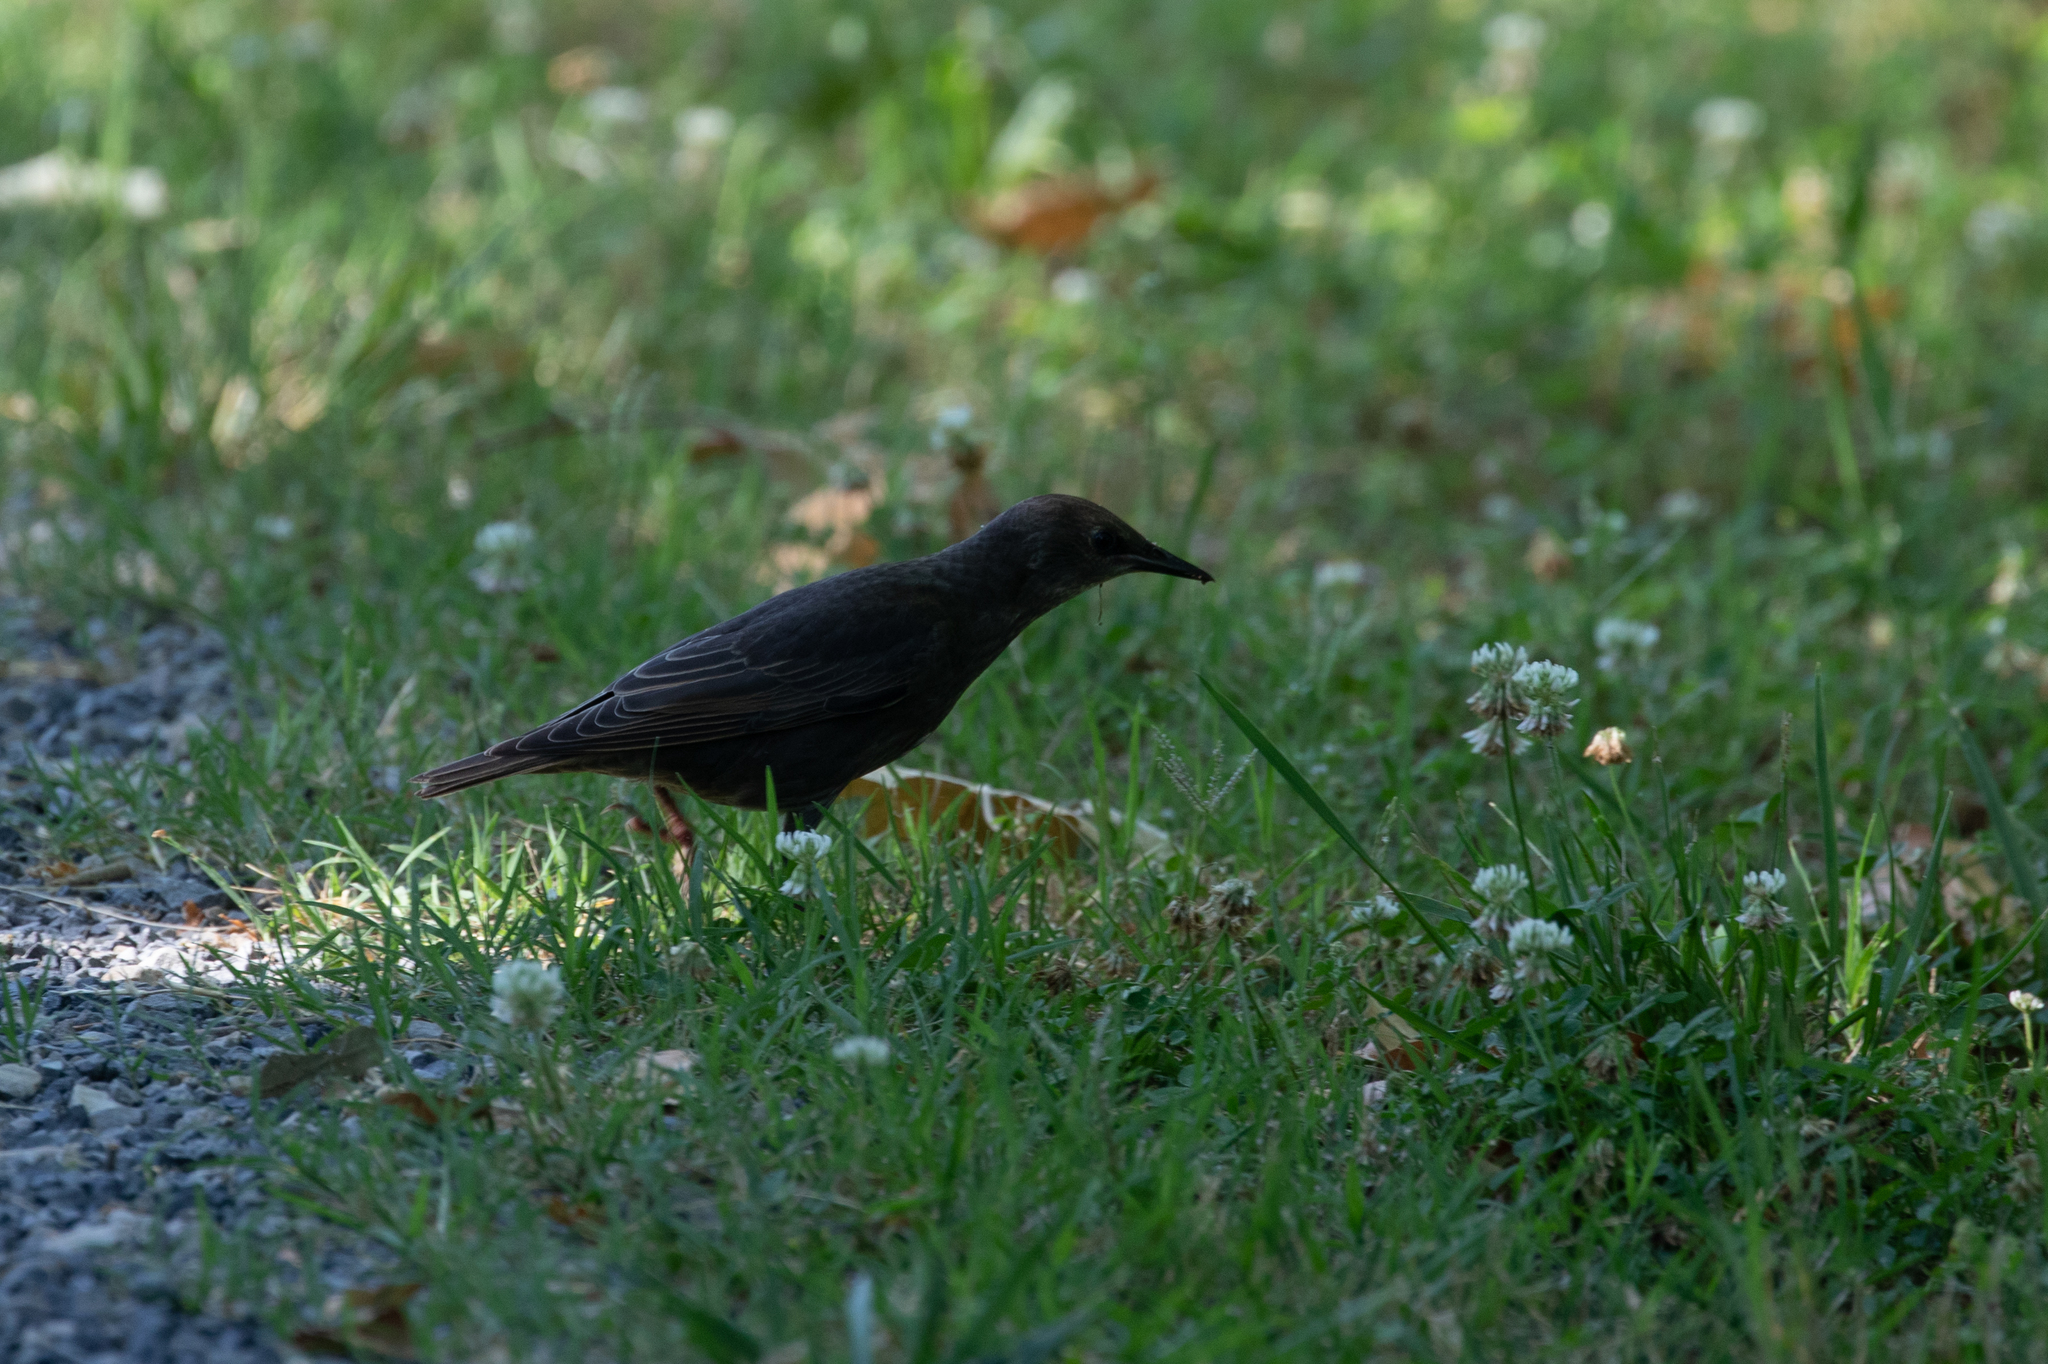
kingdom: Animalia
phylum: Chordata
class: Aves
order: Passeriformes
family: Sturnidae
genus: Sturnus
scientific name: Sturnus vulgaris
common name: Common starling
